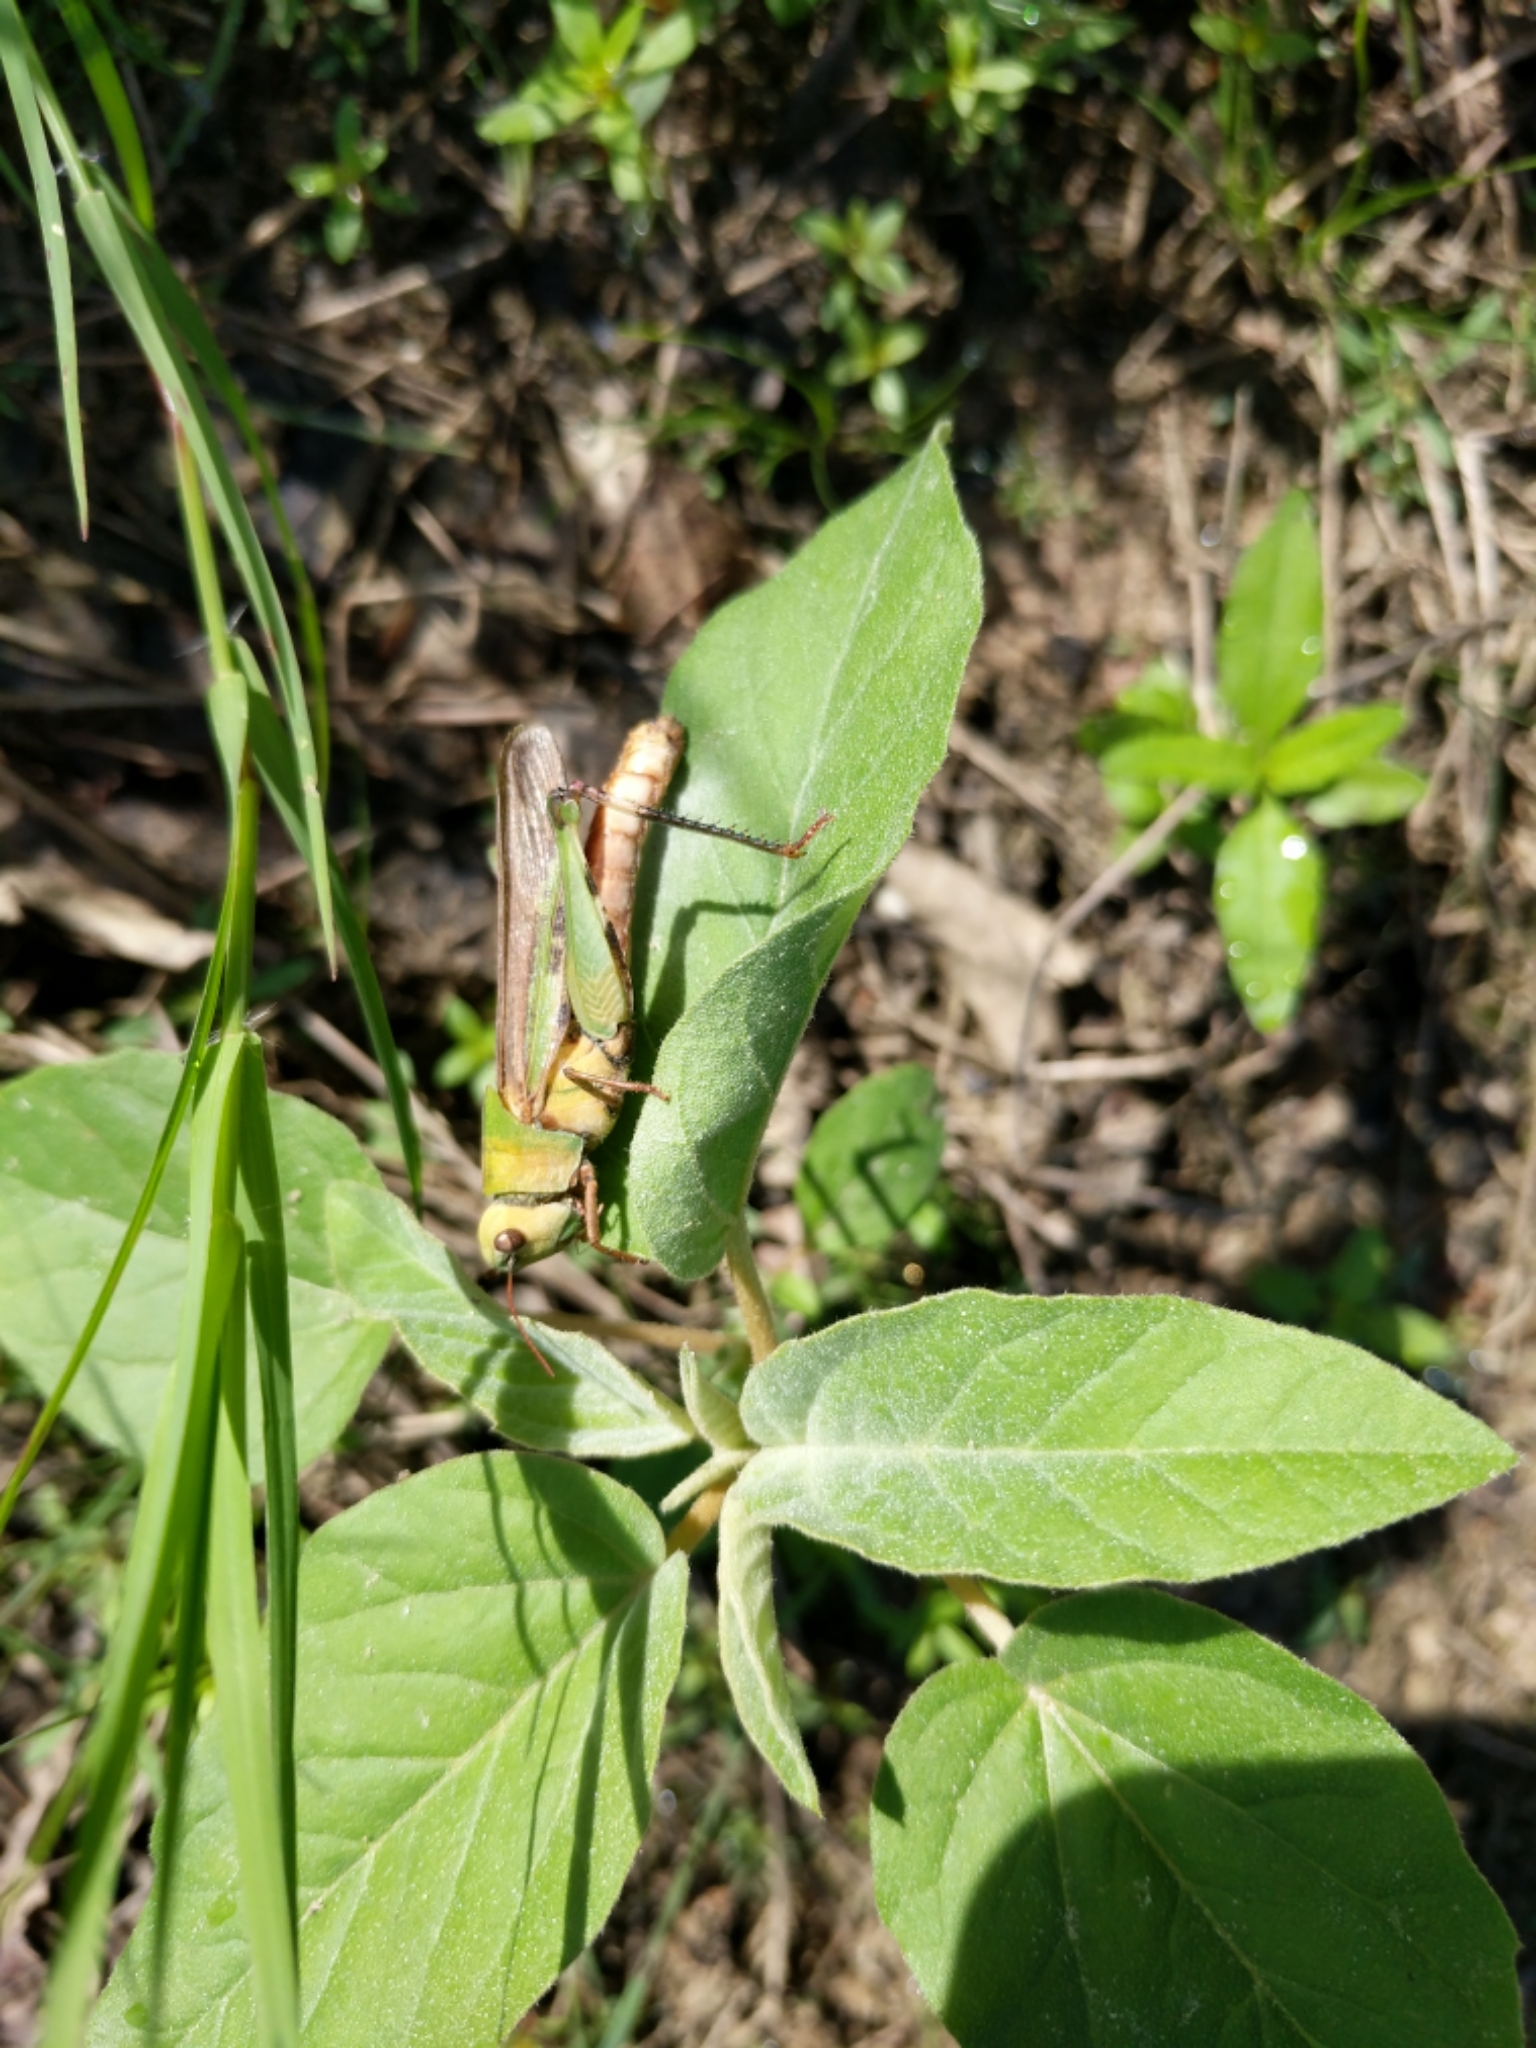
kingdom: Animalia
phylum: Arthropoda
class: Insecta
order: Orthoptera
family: Acrididae
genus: Chortophaga
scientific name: Chortophaga viridifasciata
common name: Green-striped grasshopper
